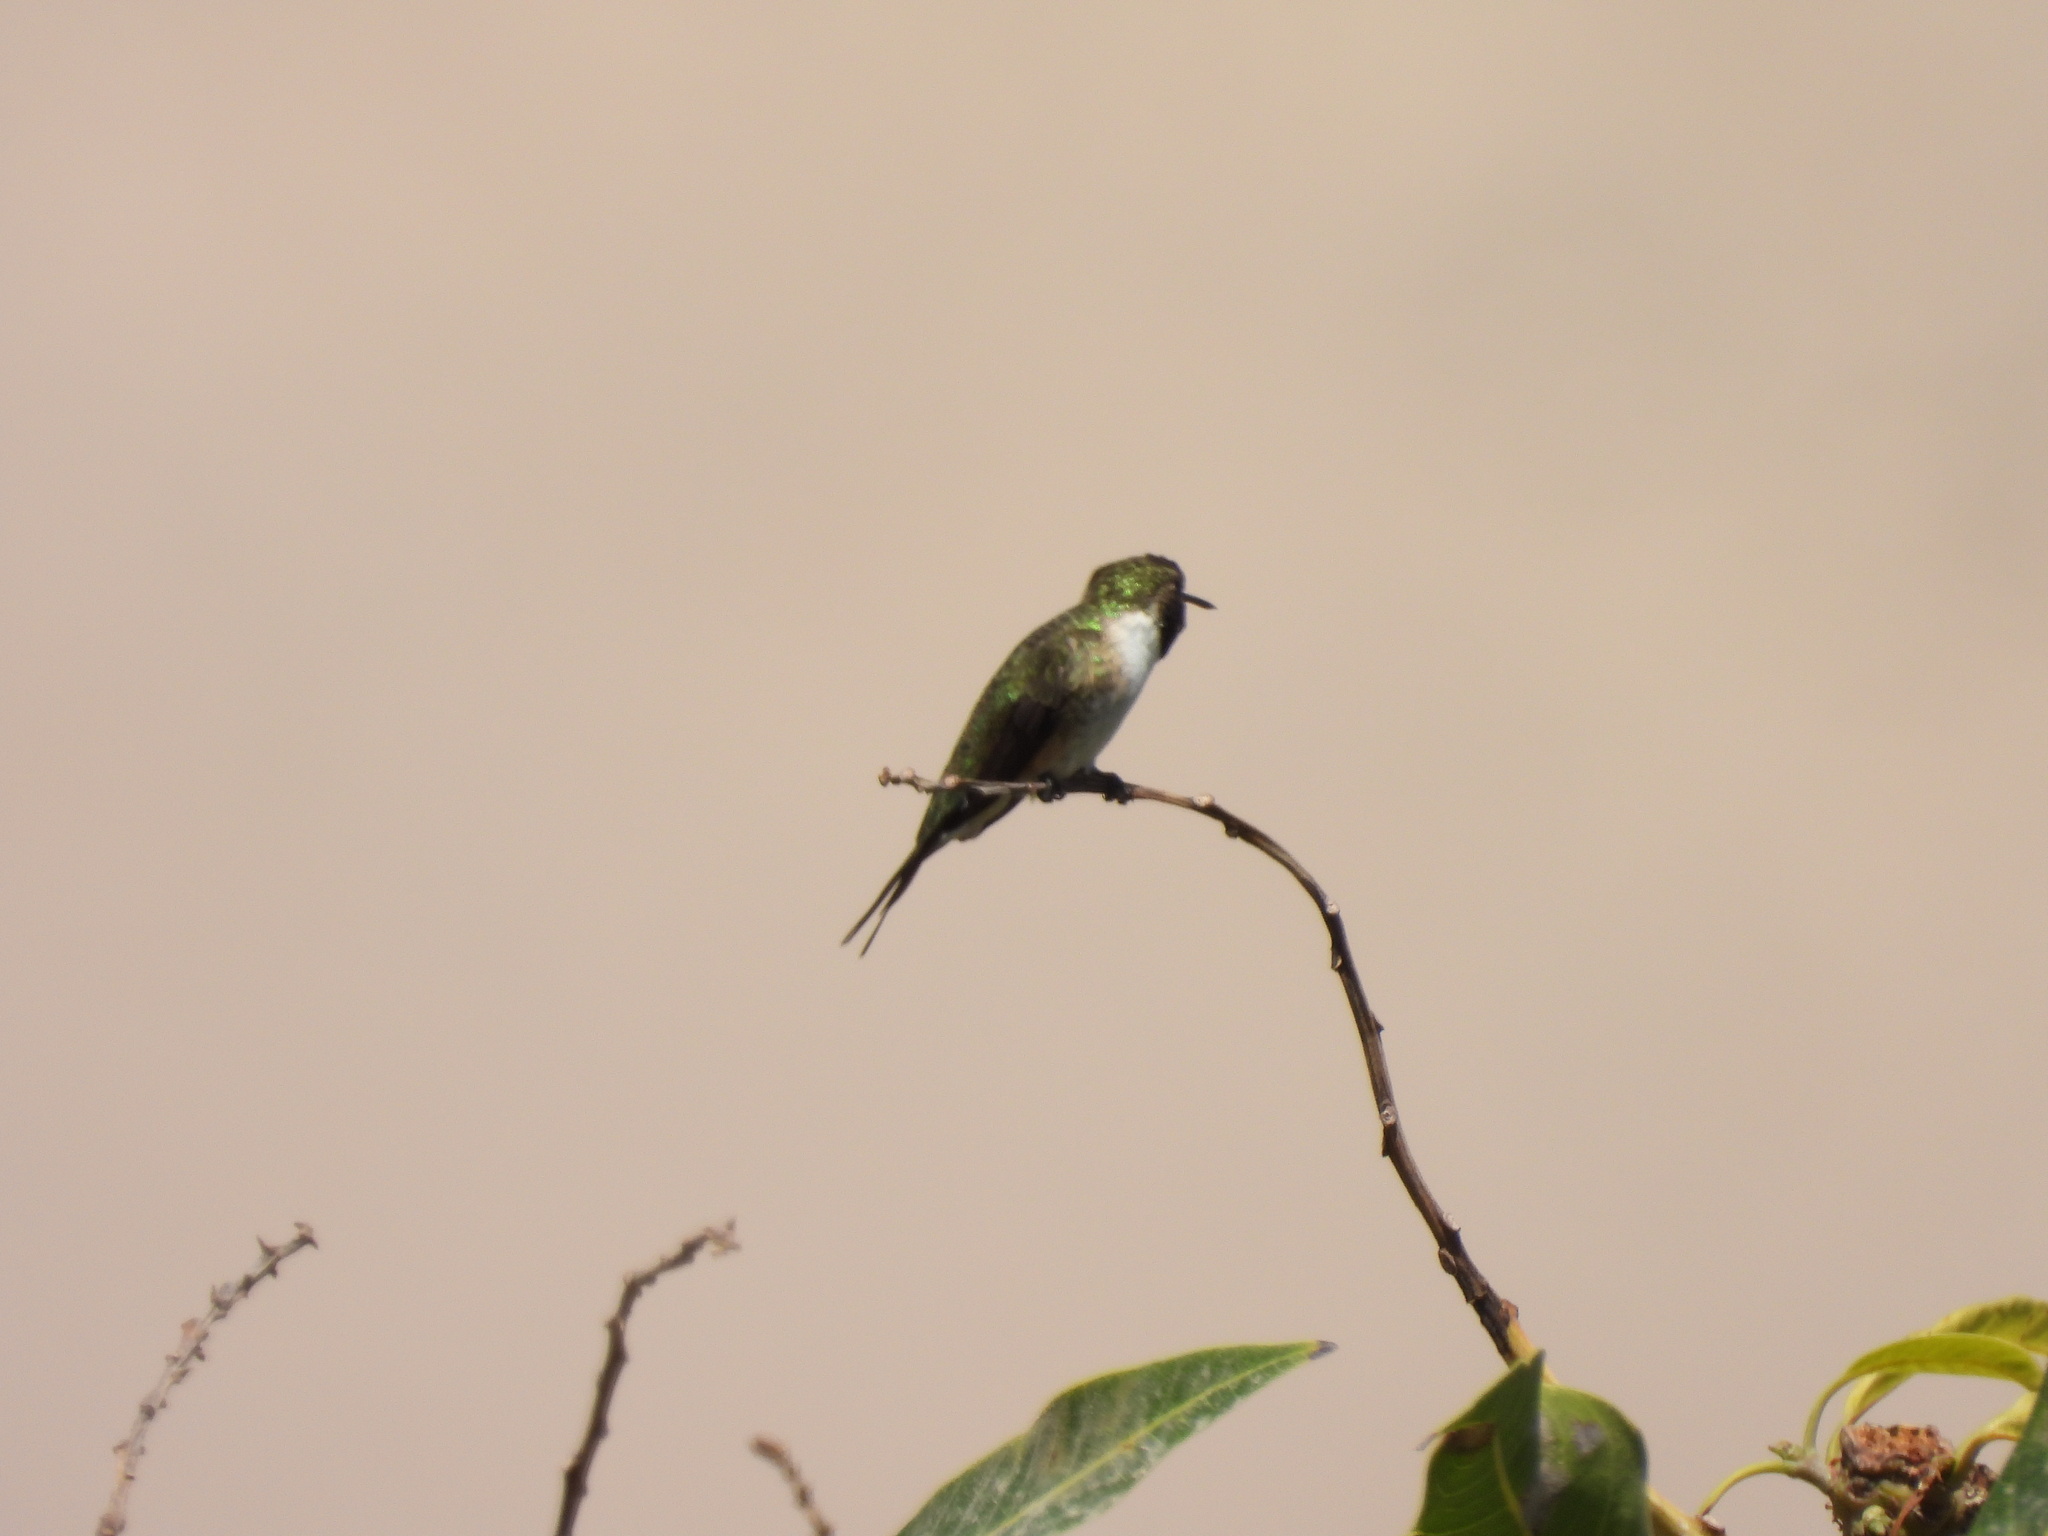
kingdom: Animalia
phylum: Chordata
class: Aves
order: Apodiformes
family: Trochilidae
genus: Eulidia
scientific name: Eulidia yarrellii
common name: Chilean woodstar
